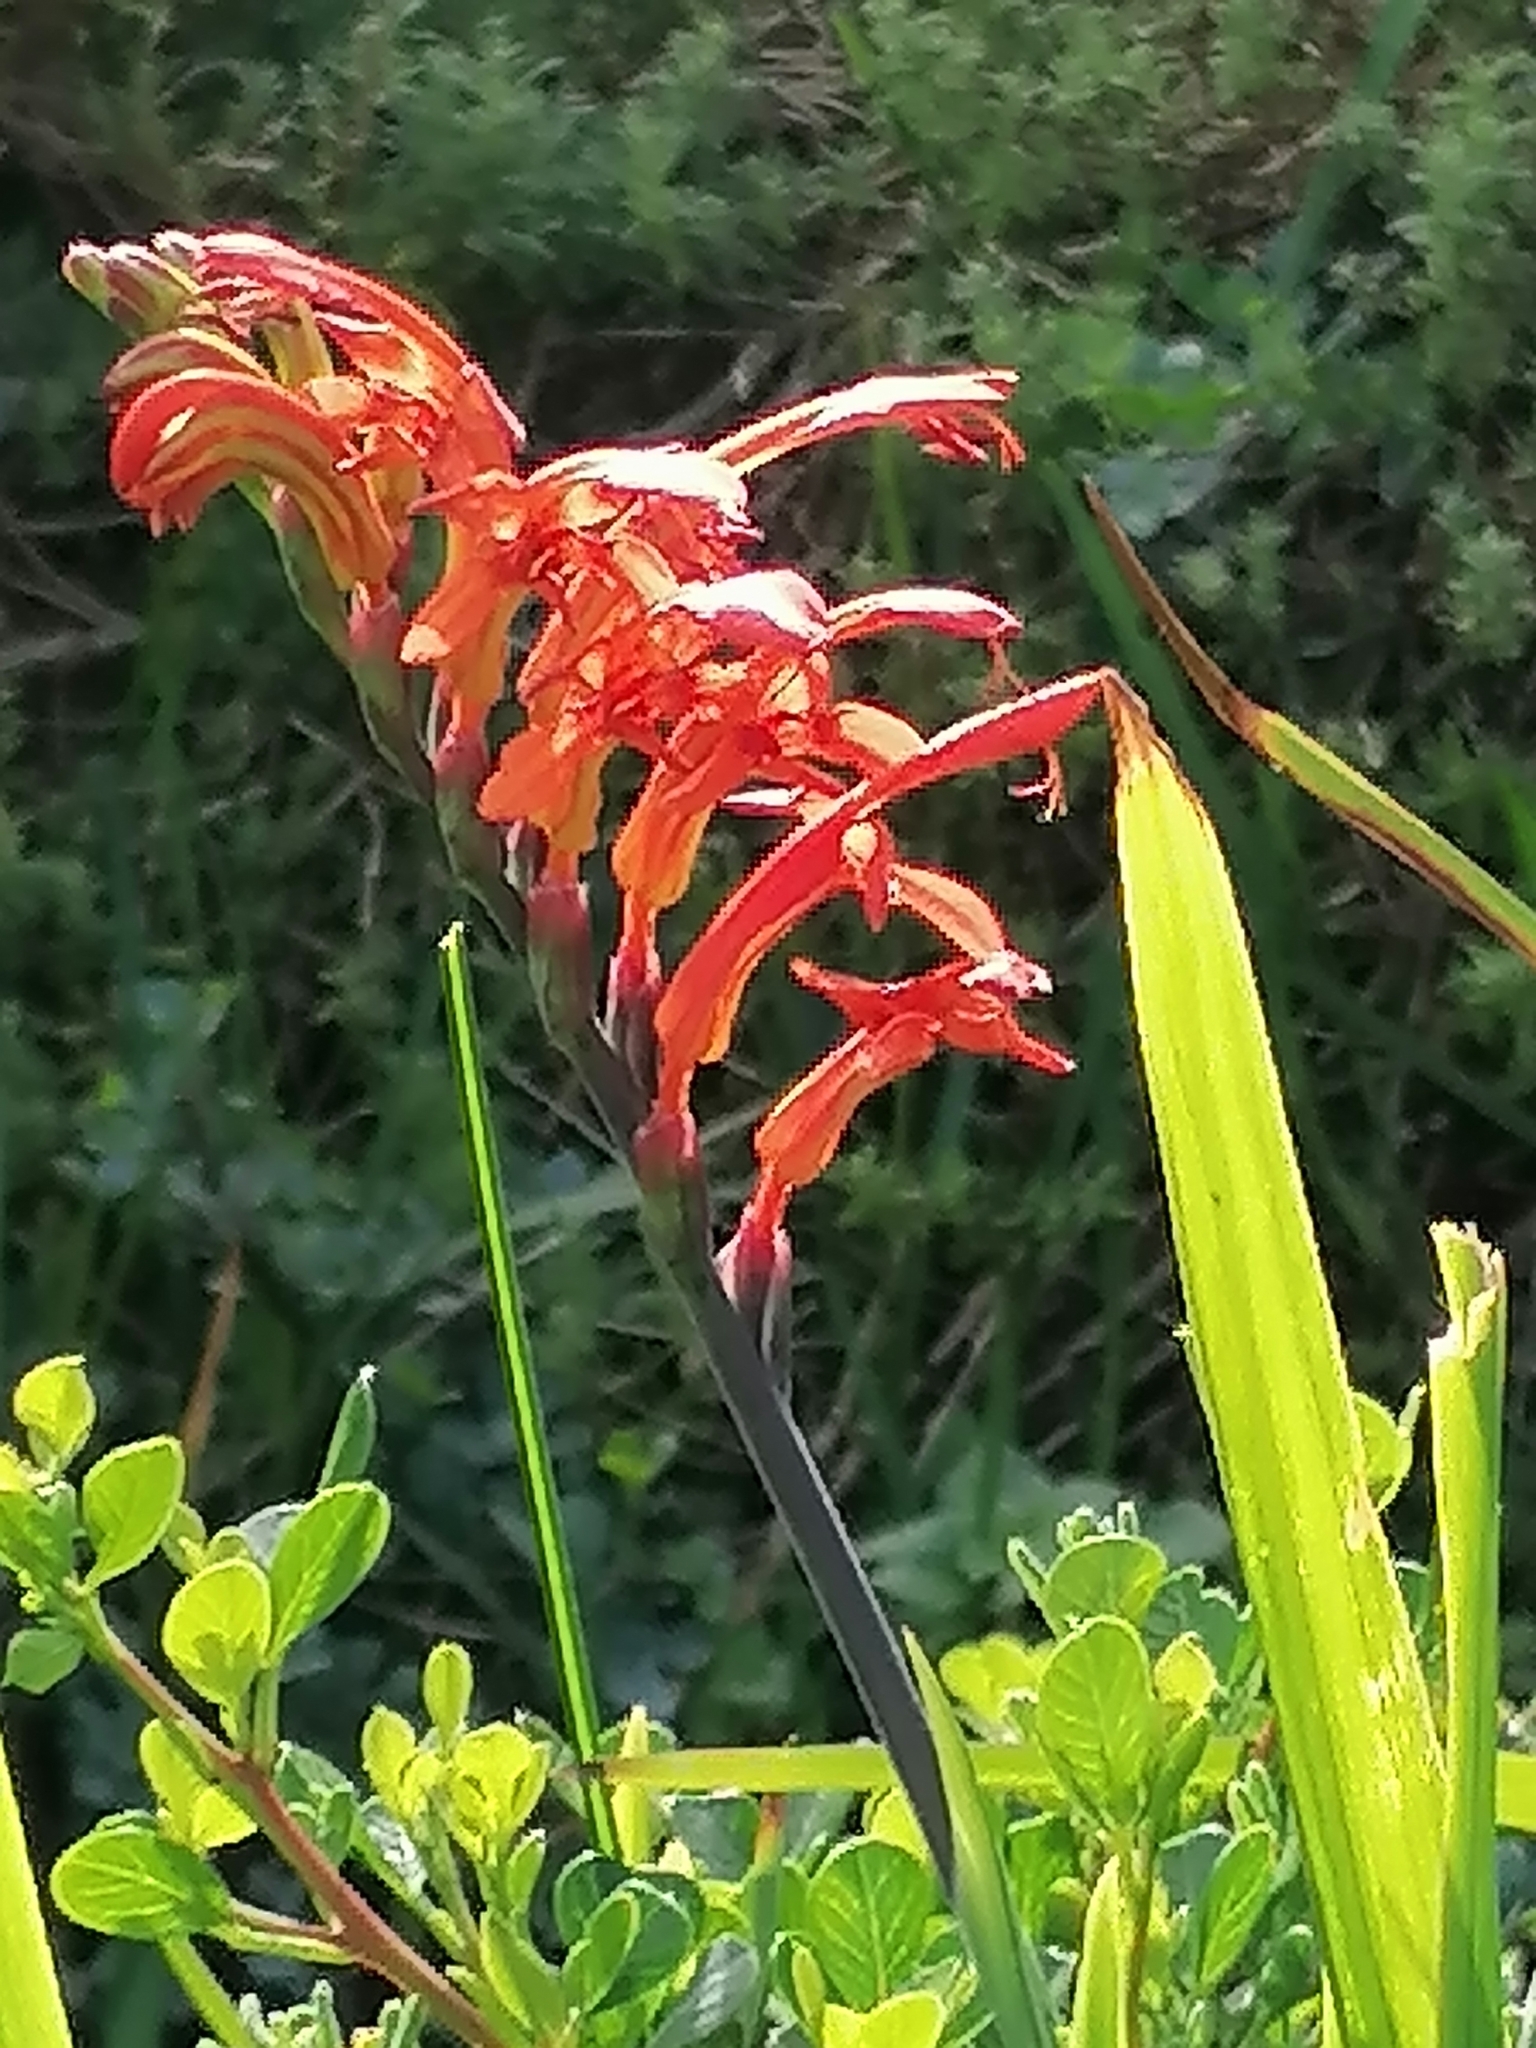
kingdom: Plantae
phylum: Tracheophyta
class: Liliopsida
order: Asparagales
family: Iridaceae
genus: Chasmanthe
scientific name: Chasmanthe aethiopica
